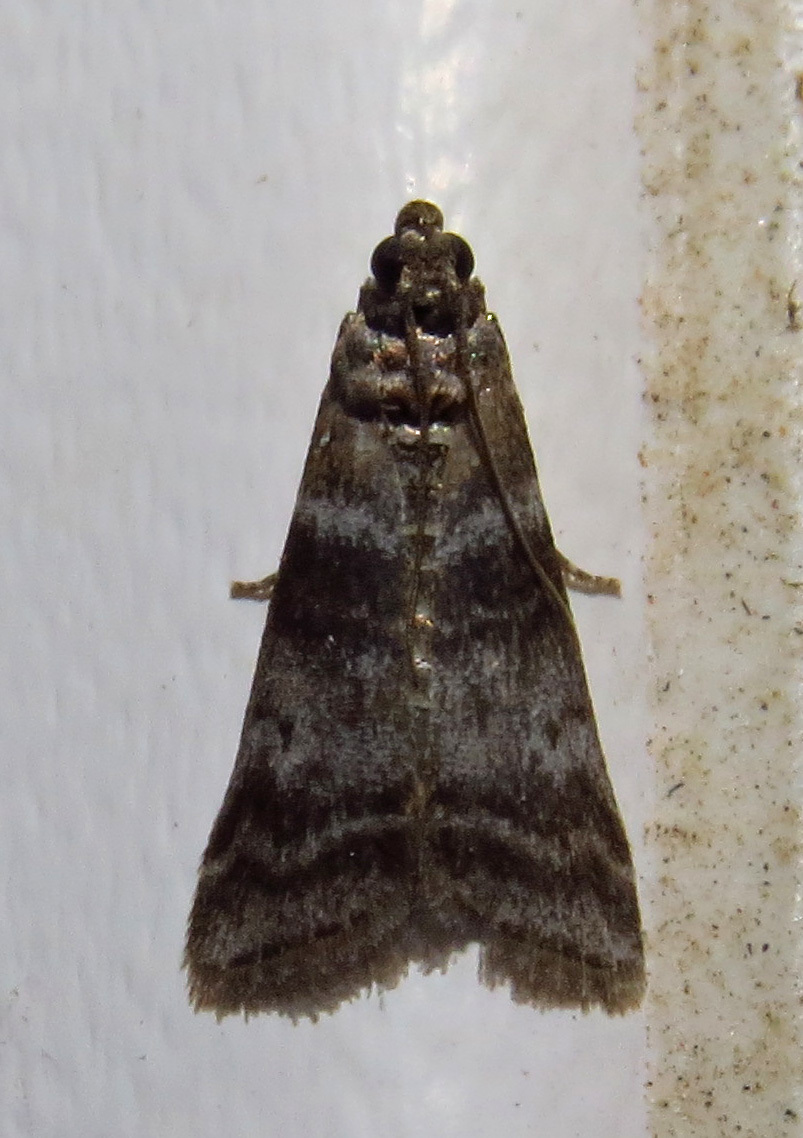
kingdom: Animalia
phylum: Arthropoda
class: Insecta
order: Lepidoptera
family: Pyralidae
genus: Sciota
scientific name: Sciota uvinella
